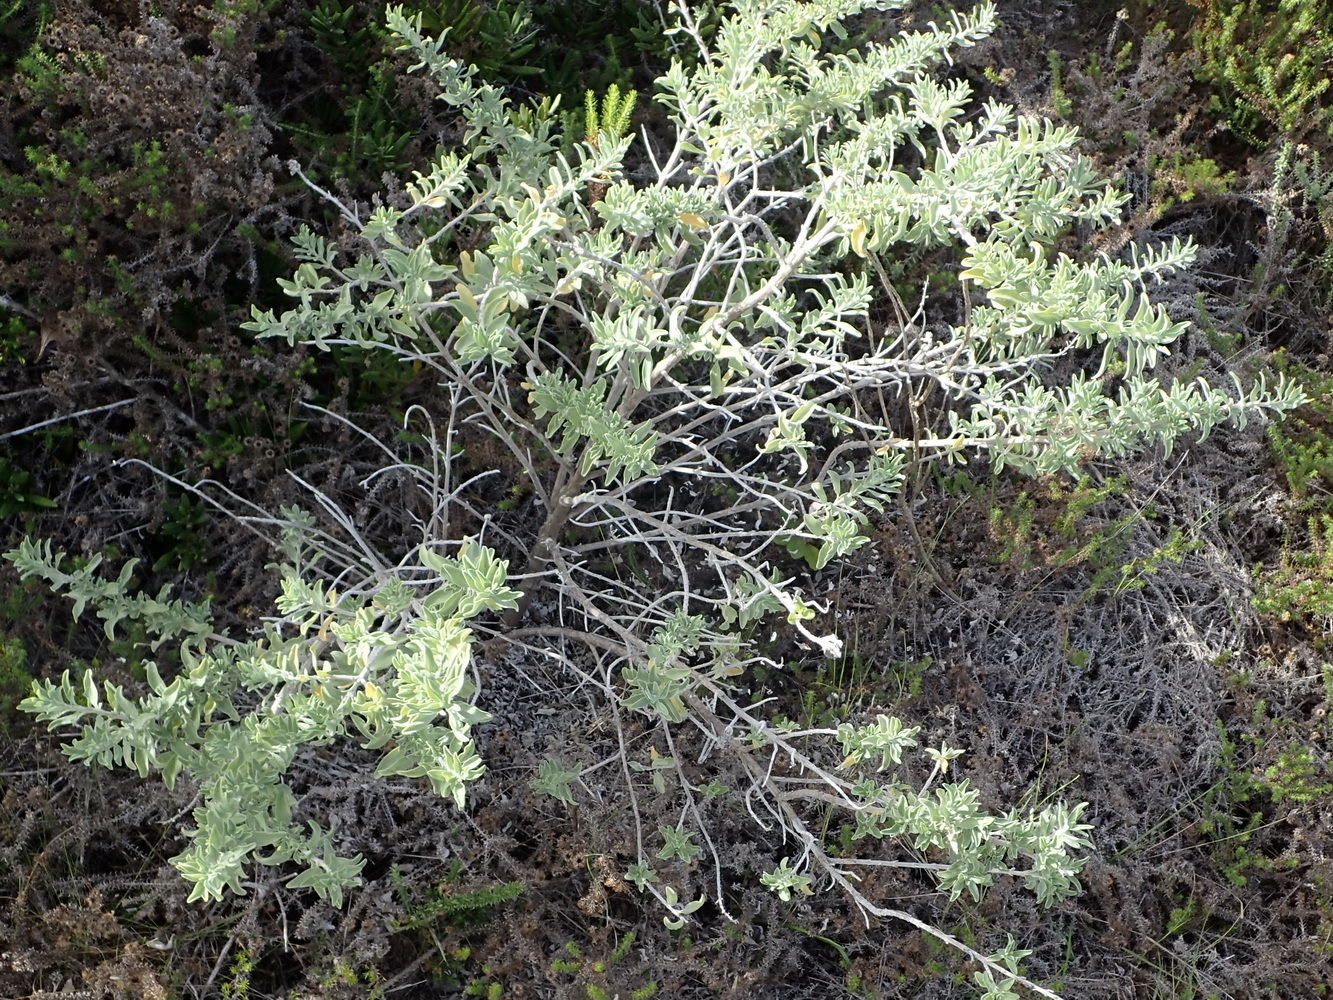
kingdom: Plantae
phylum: Tracheophyta
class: Magnoliopsida
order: Lamiales
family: Lamiaceae
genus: Salvia
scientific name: Salvia aurea
